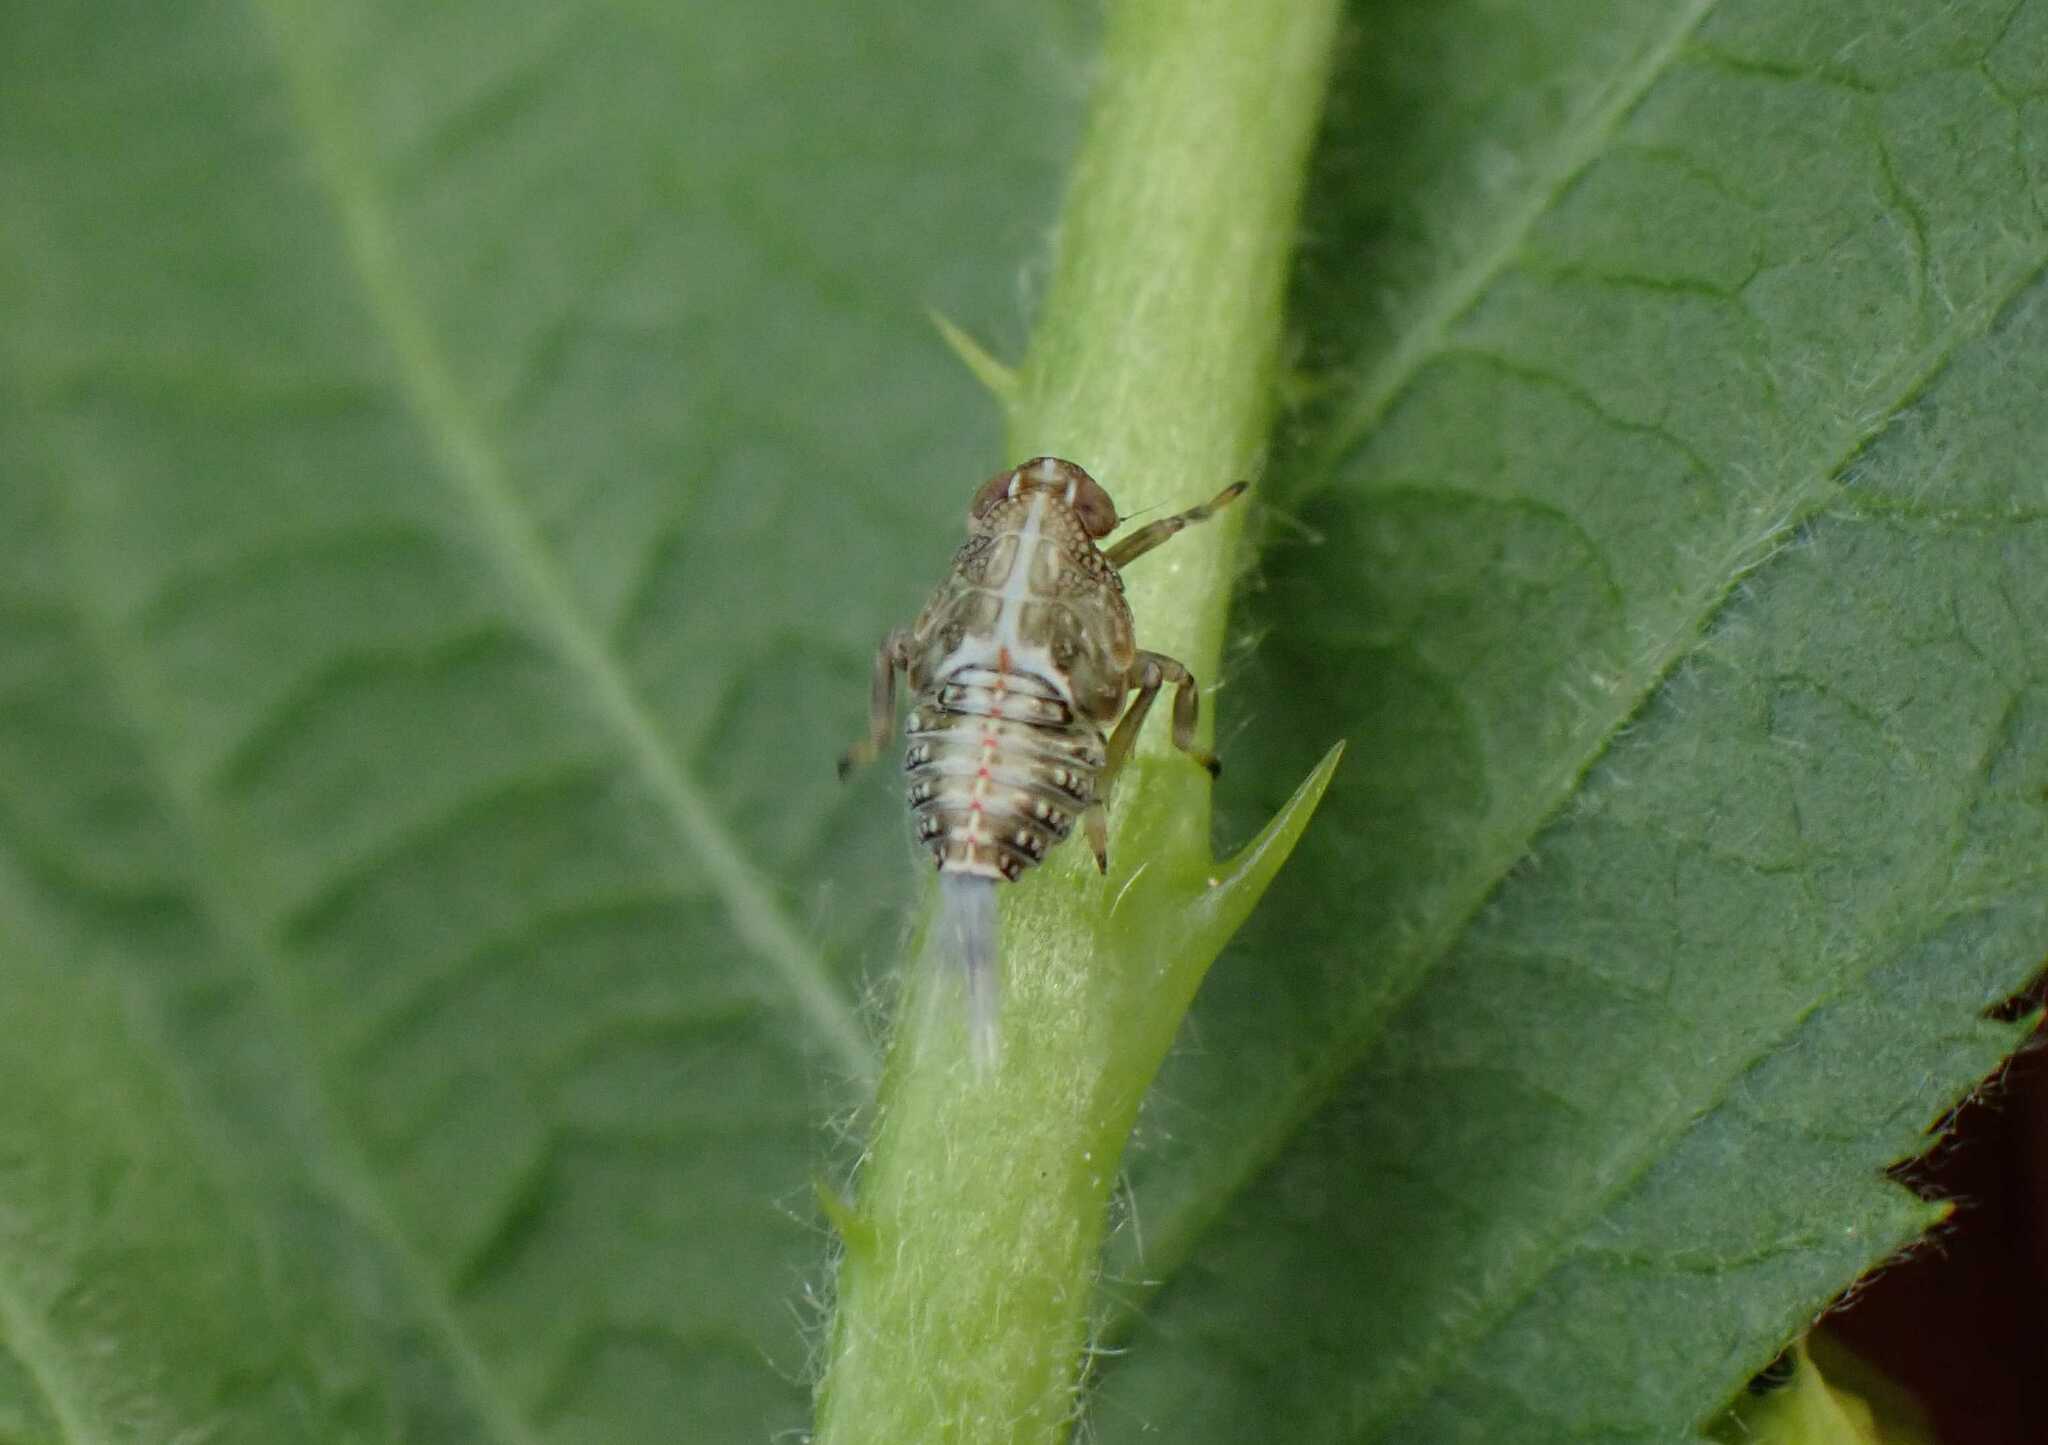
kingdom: Animalia
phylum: Arthropoda
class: Insecta
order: Hemiptera
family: Issidae
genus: Issus
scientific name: Issus
